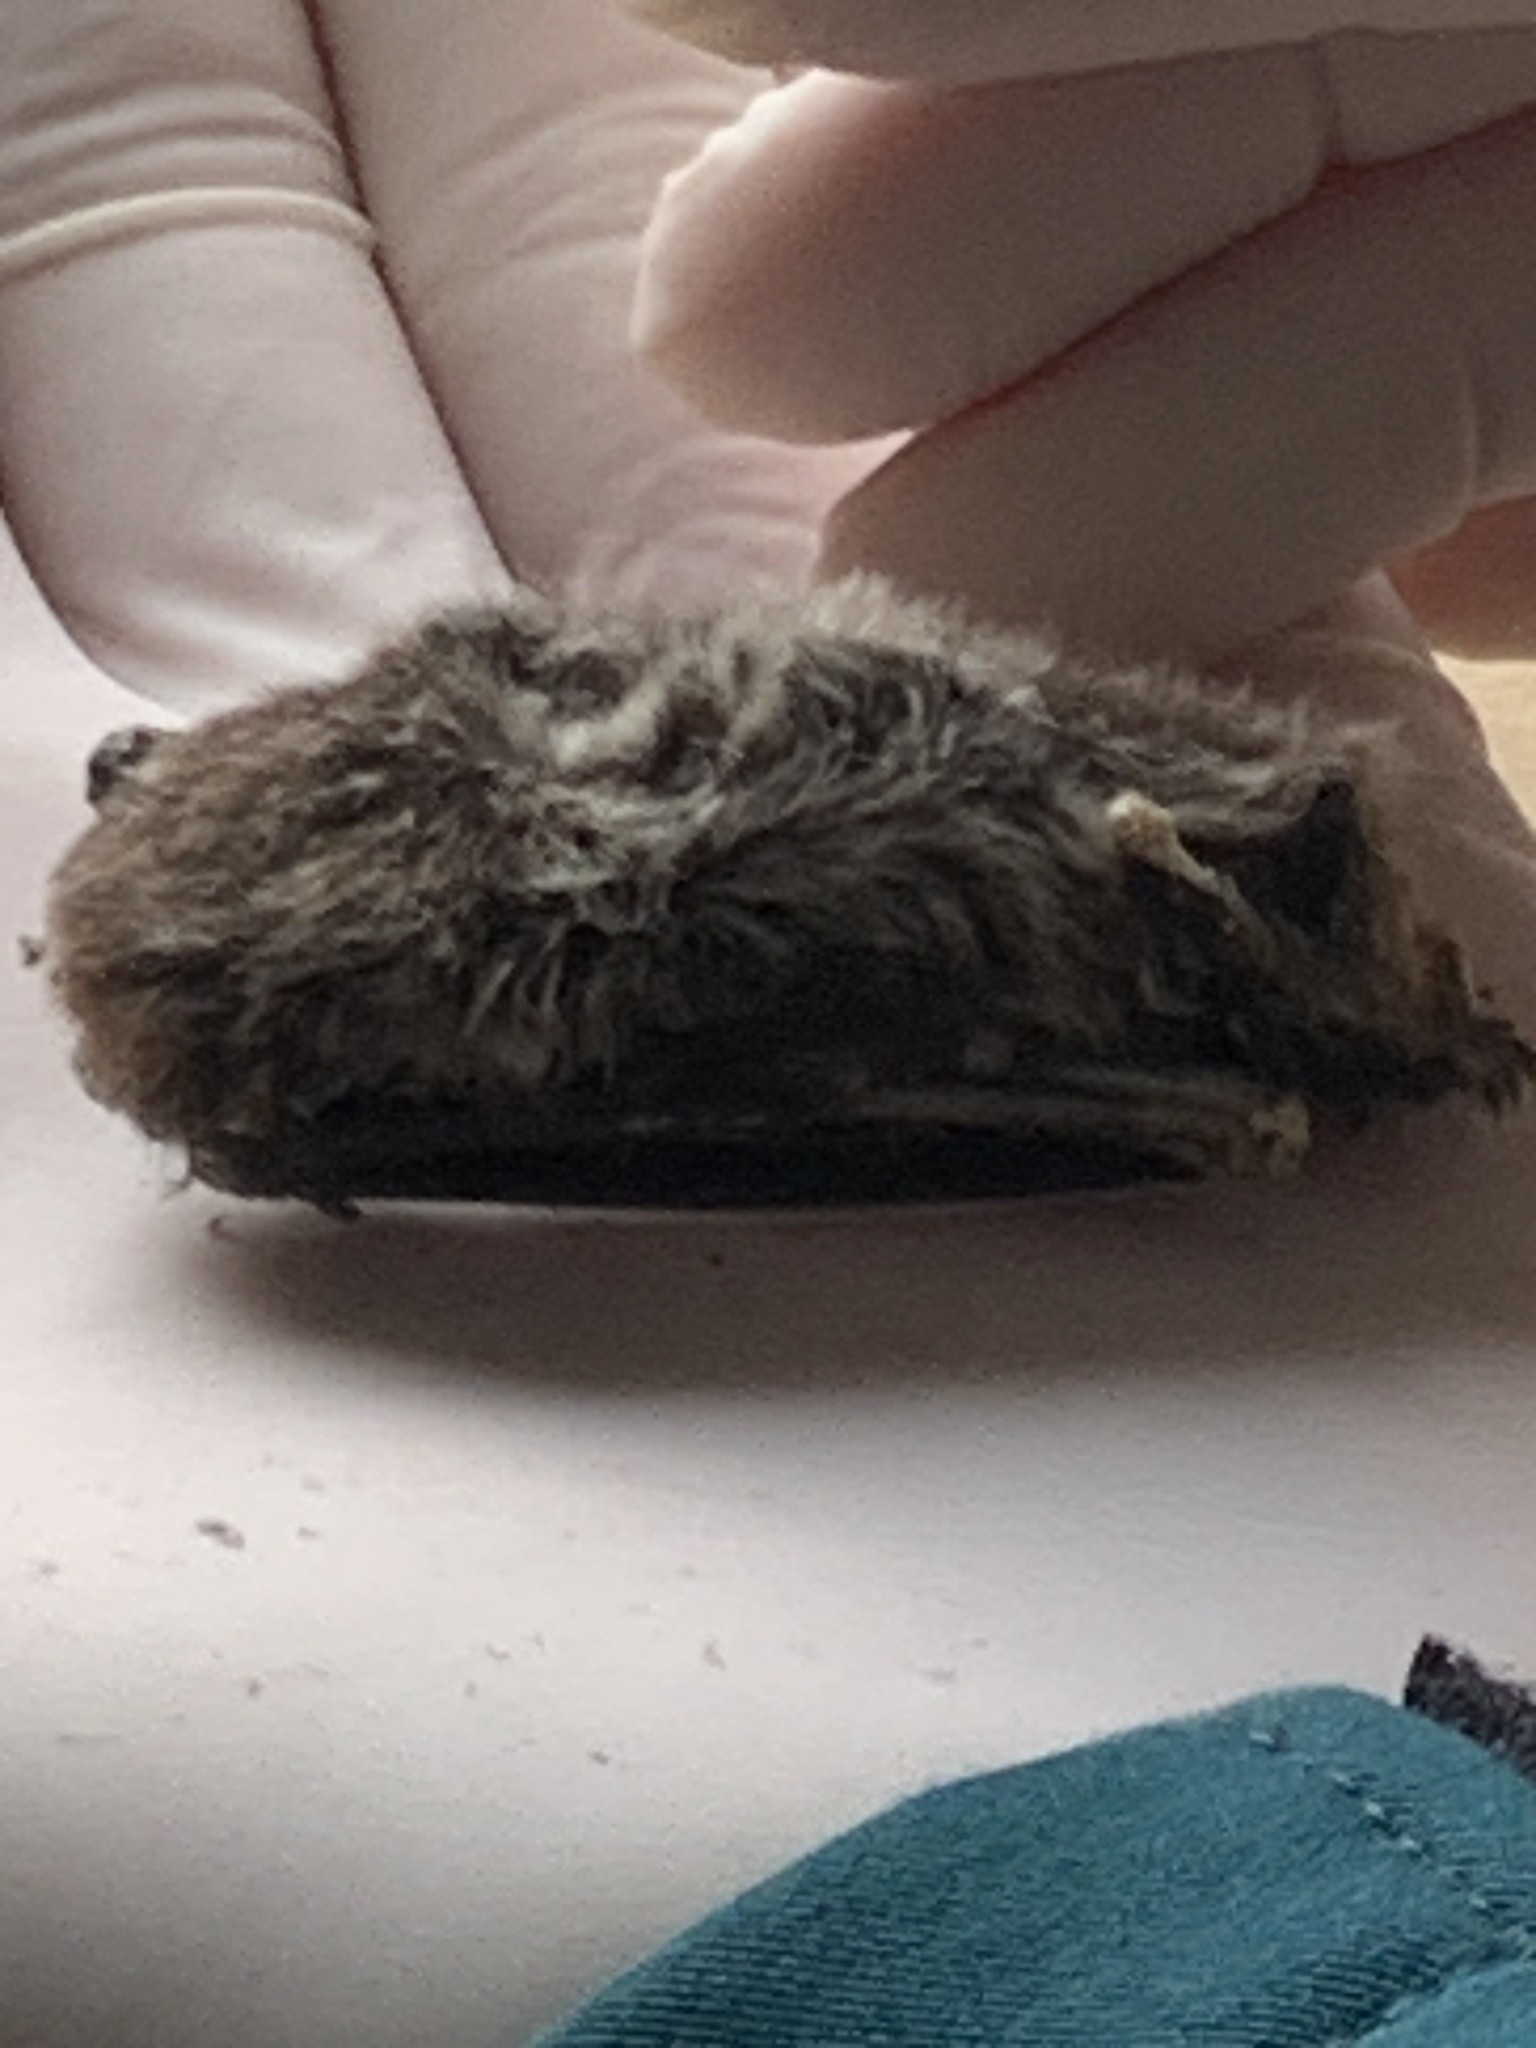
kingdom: Animalia
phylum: Chordata
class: Mammalia
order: Chiroptera
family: Vespertilionidae
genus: Lasionycteris
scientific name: Lasionycteris noctivagans
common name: Silver-haired bat
